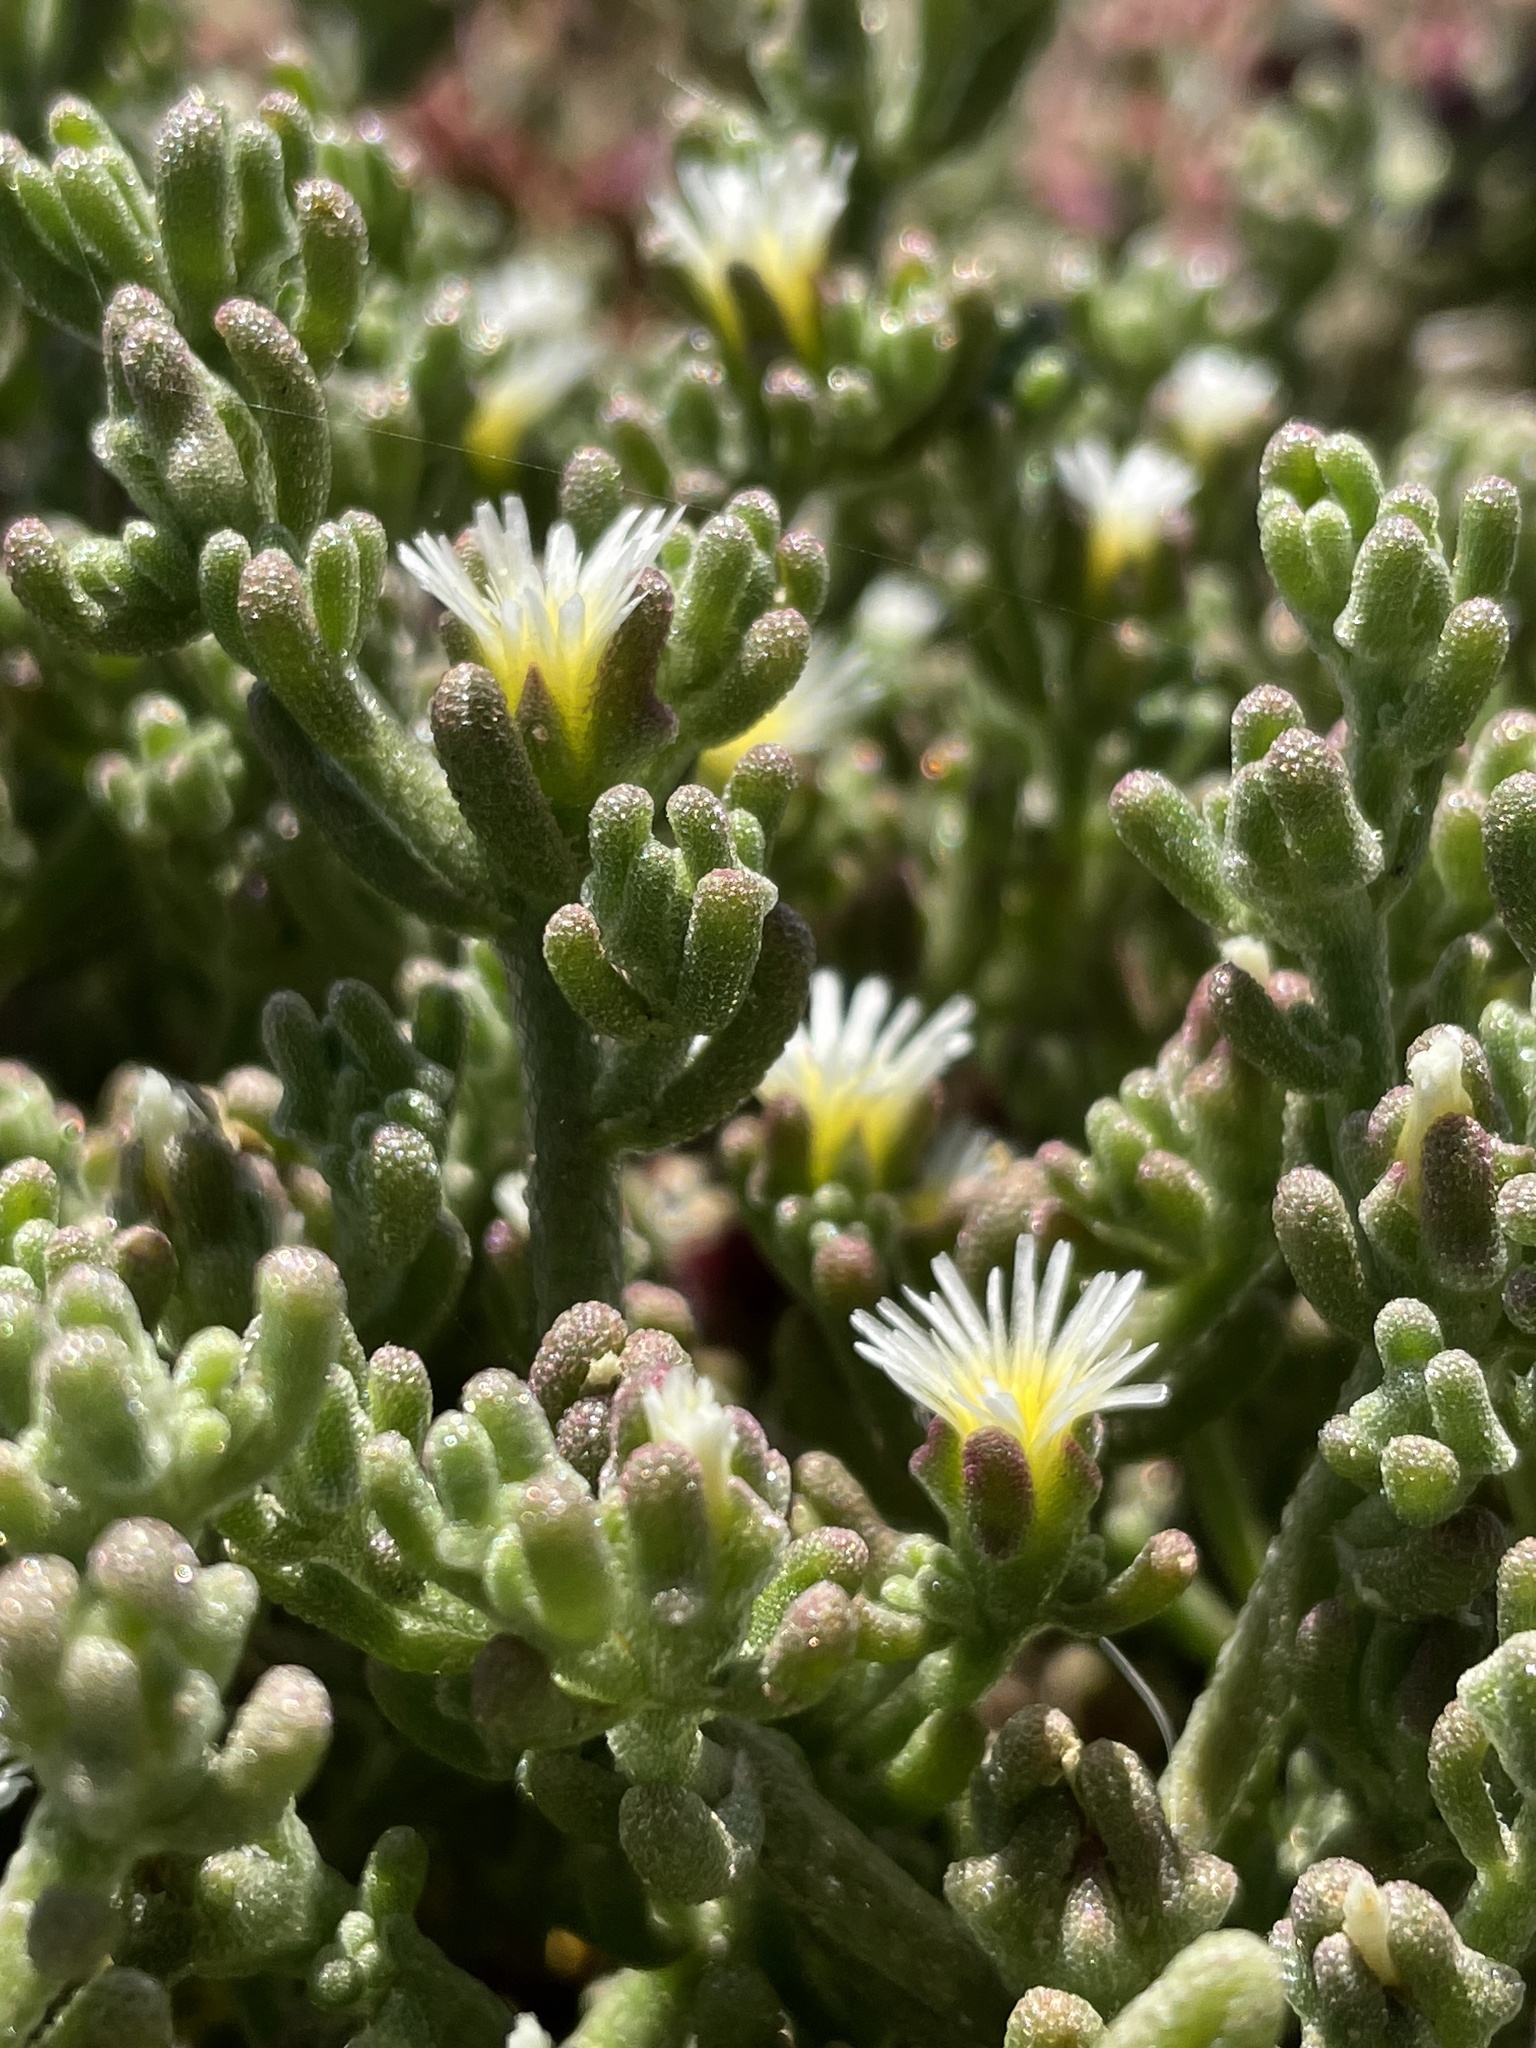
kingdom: Plantae
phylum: Tracheophyta
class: Magnoliopsida
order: Caryophyllales
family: Aizoaceae
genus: Mesembryanthemum
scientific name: Mesembryanthemum nodiflorum
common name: Slenderleaf iceplant
